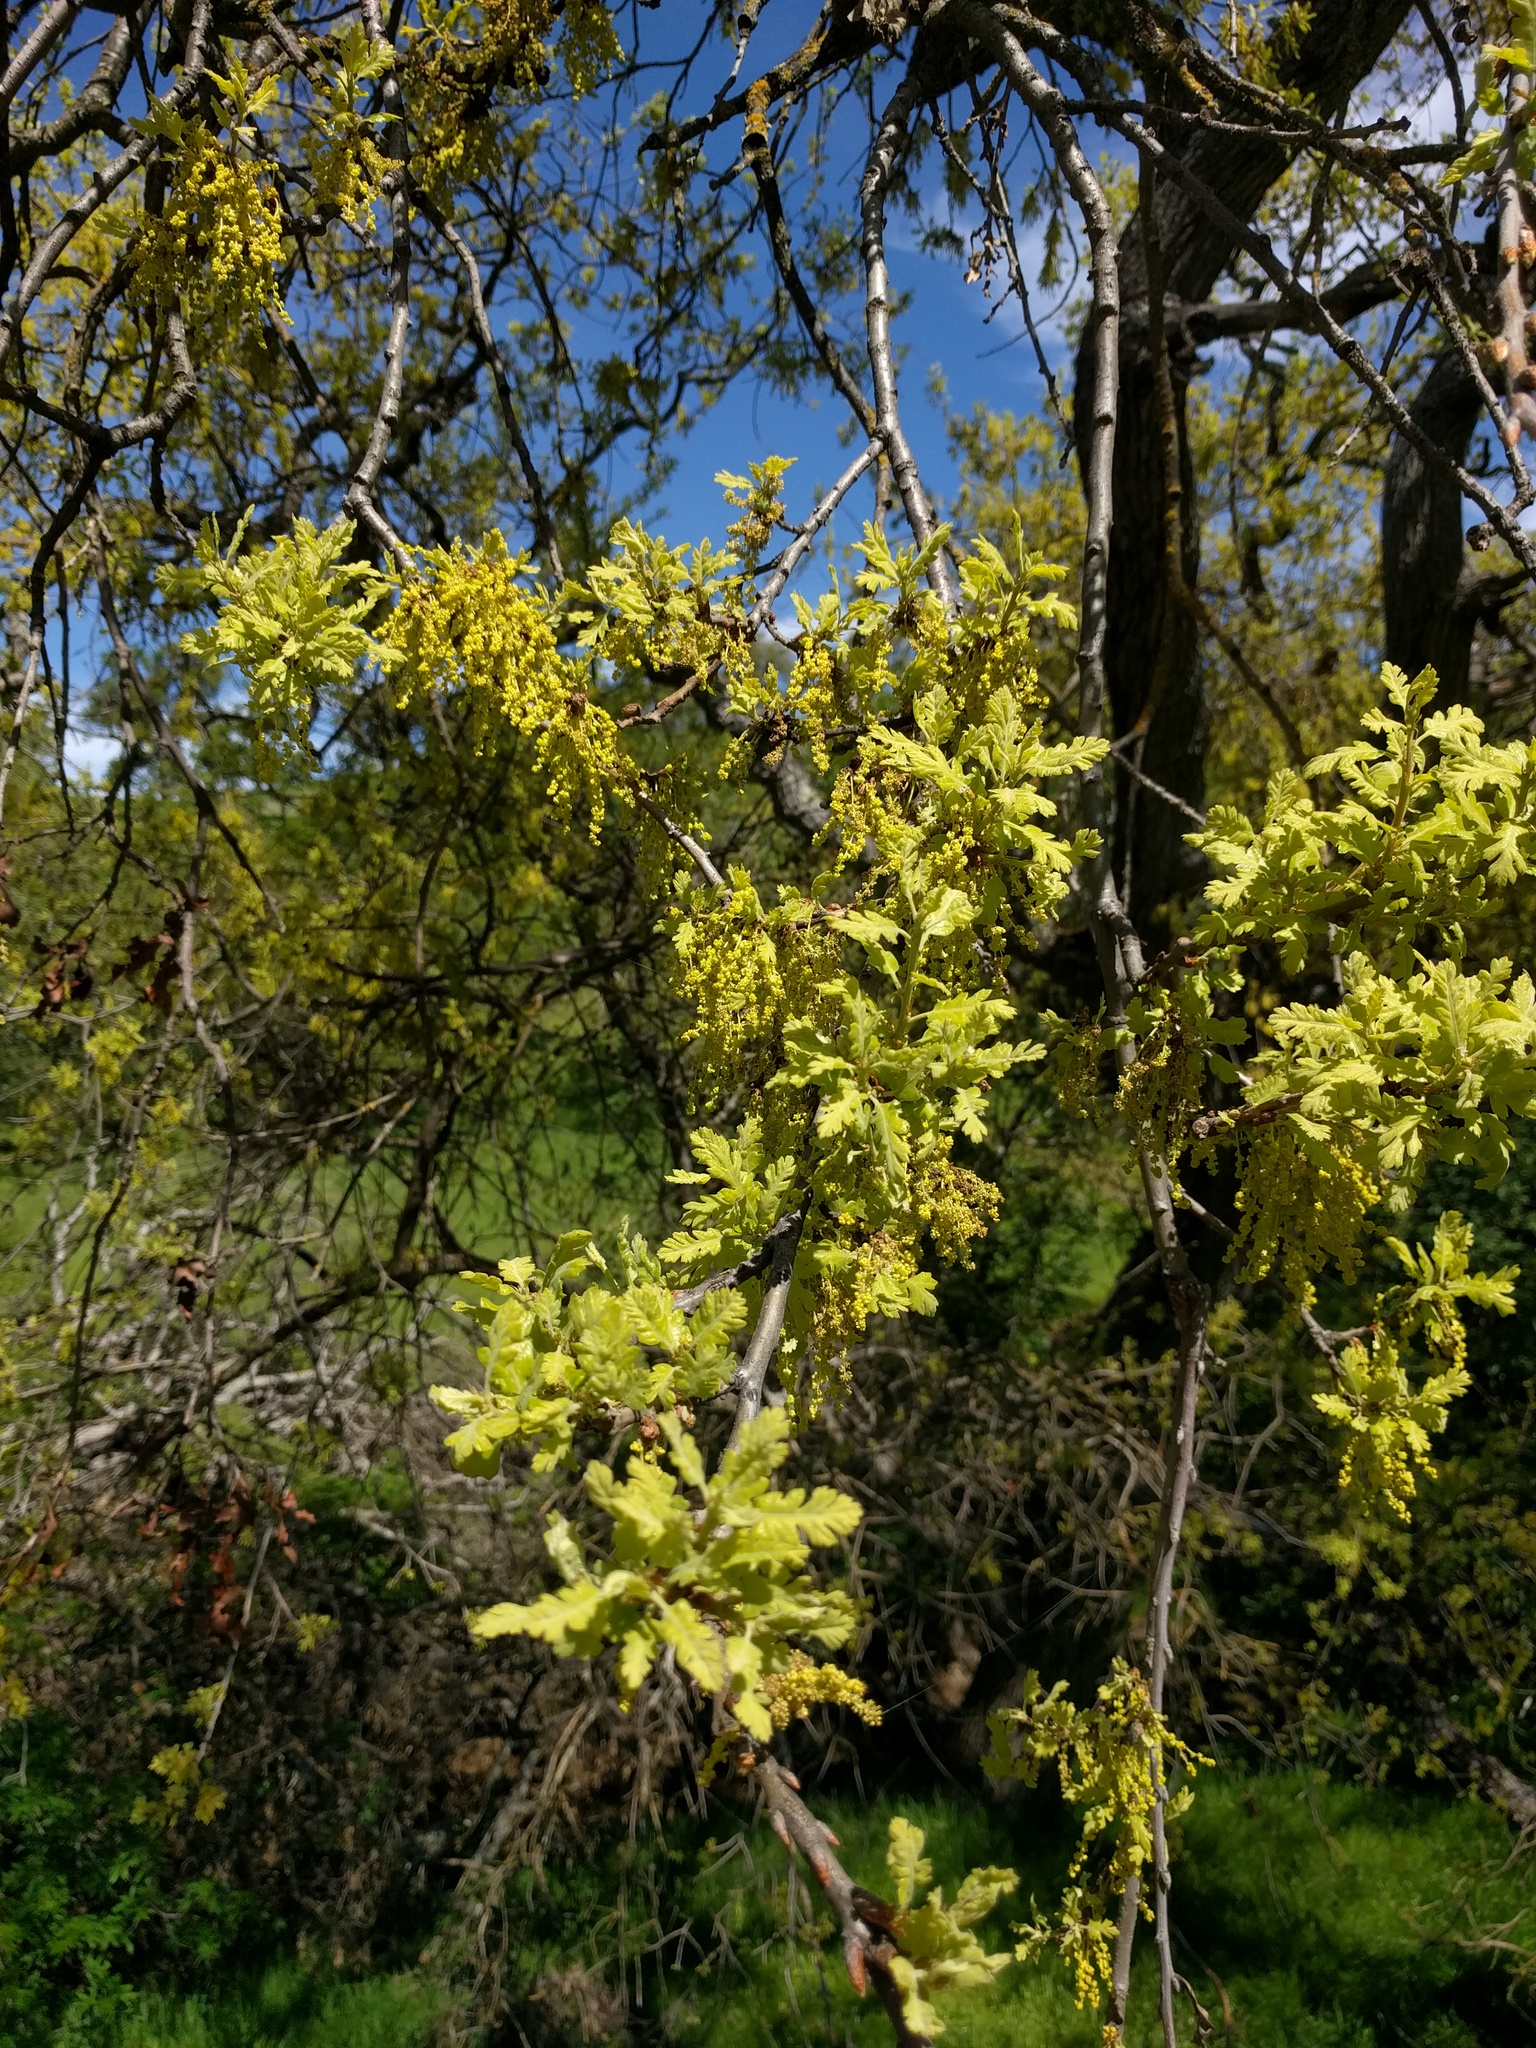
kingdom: Plantae
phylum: Tracheophyta
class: Magnoliopsida
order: Fagales
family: Fagaceae
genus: Quercus
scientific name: Quercus lobata
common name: Valley oak
